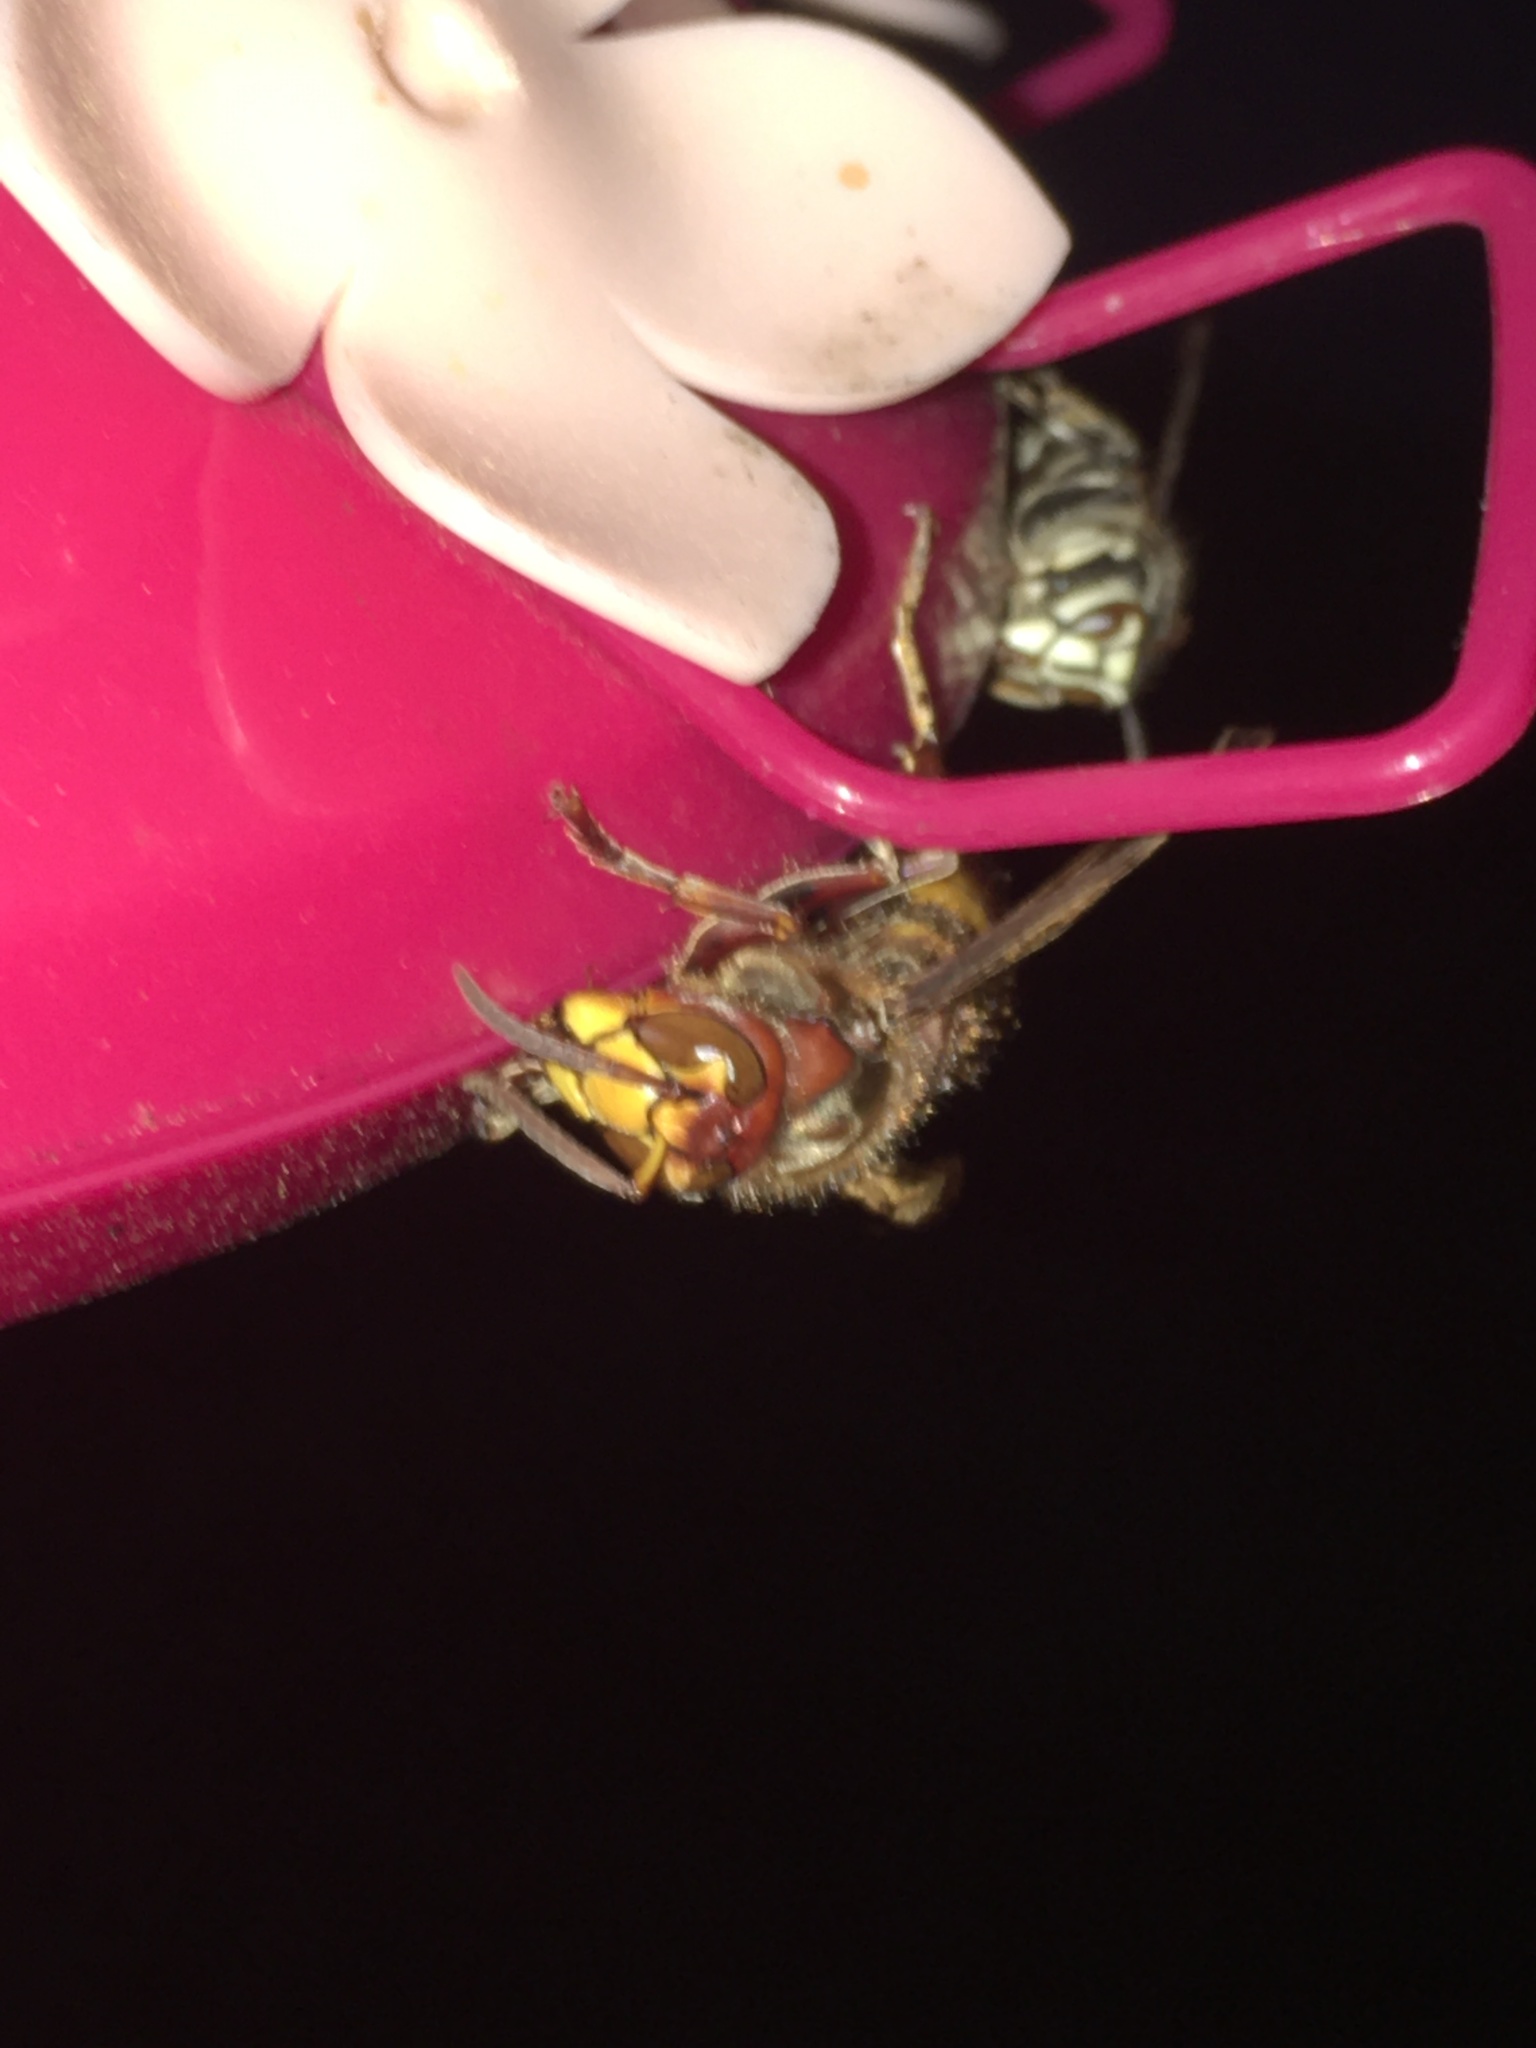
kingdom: Animalia
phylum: Arthropoda
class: Insecta
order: Hymenoptera
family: Vespidae
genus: Vespa
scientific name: Vespa crabro
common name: Hornet
